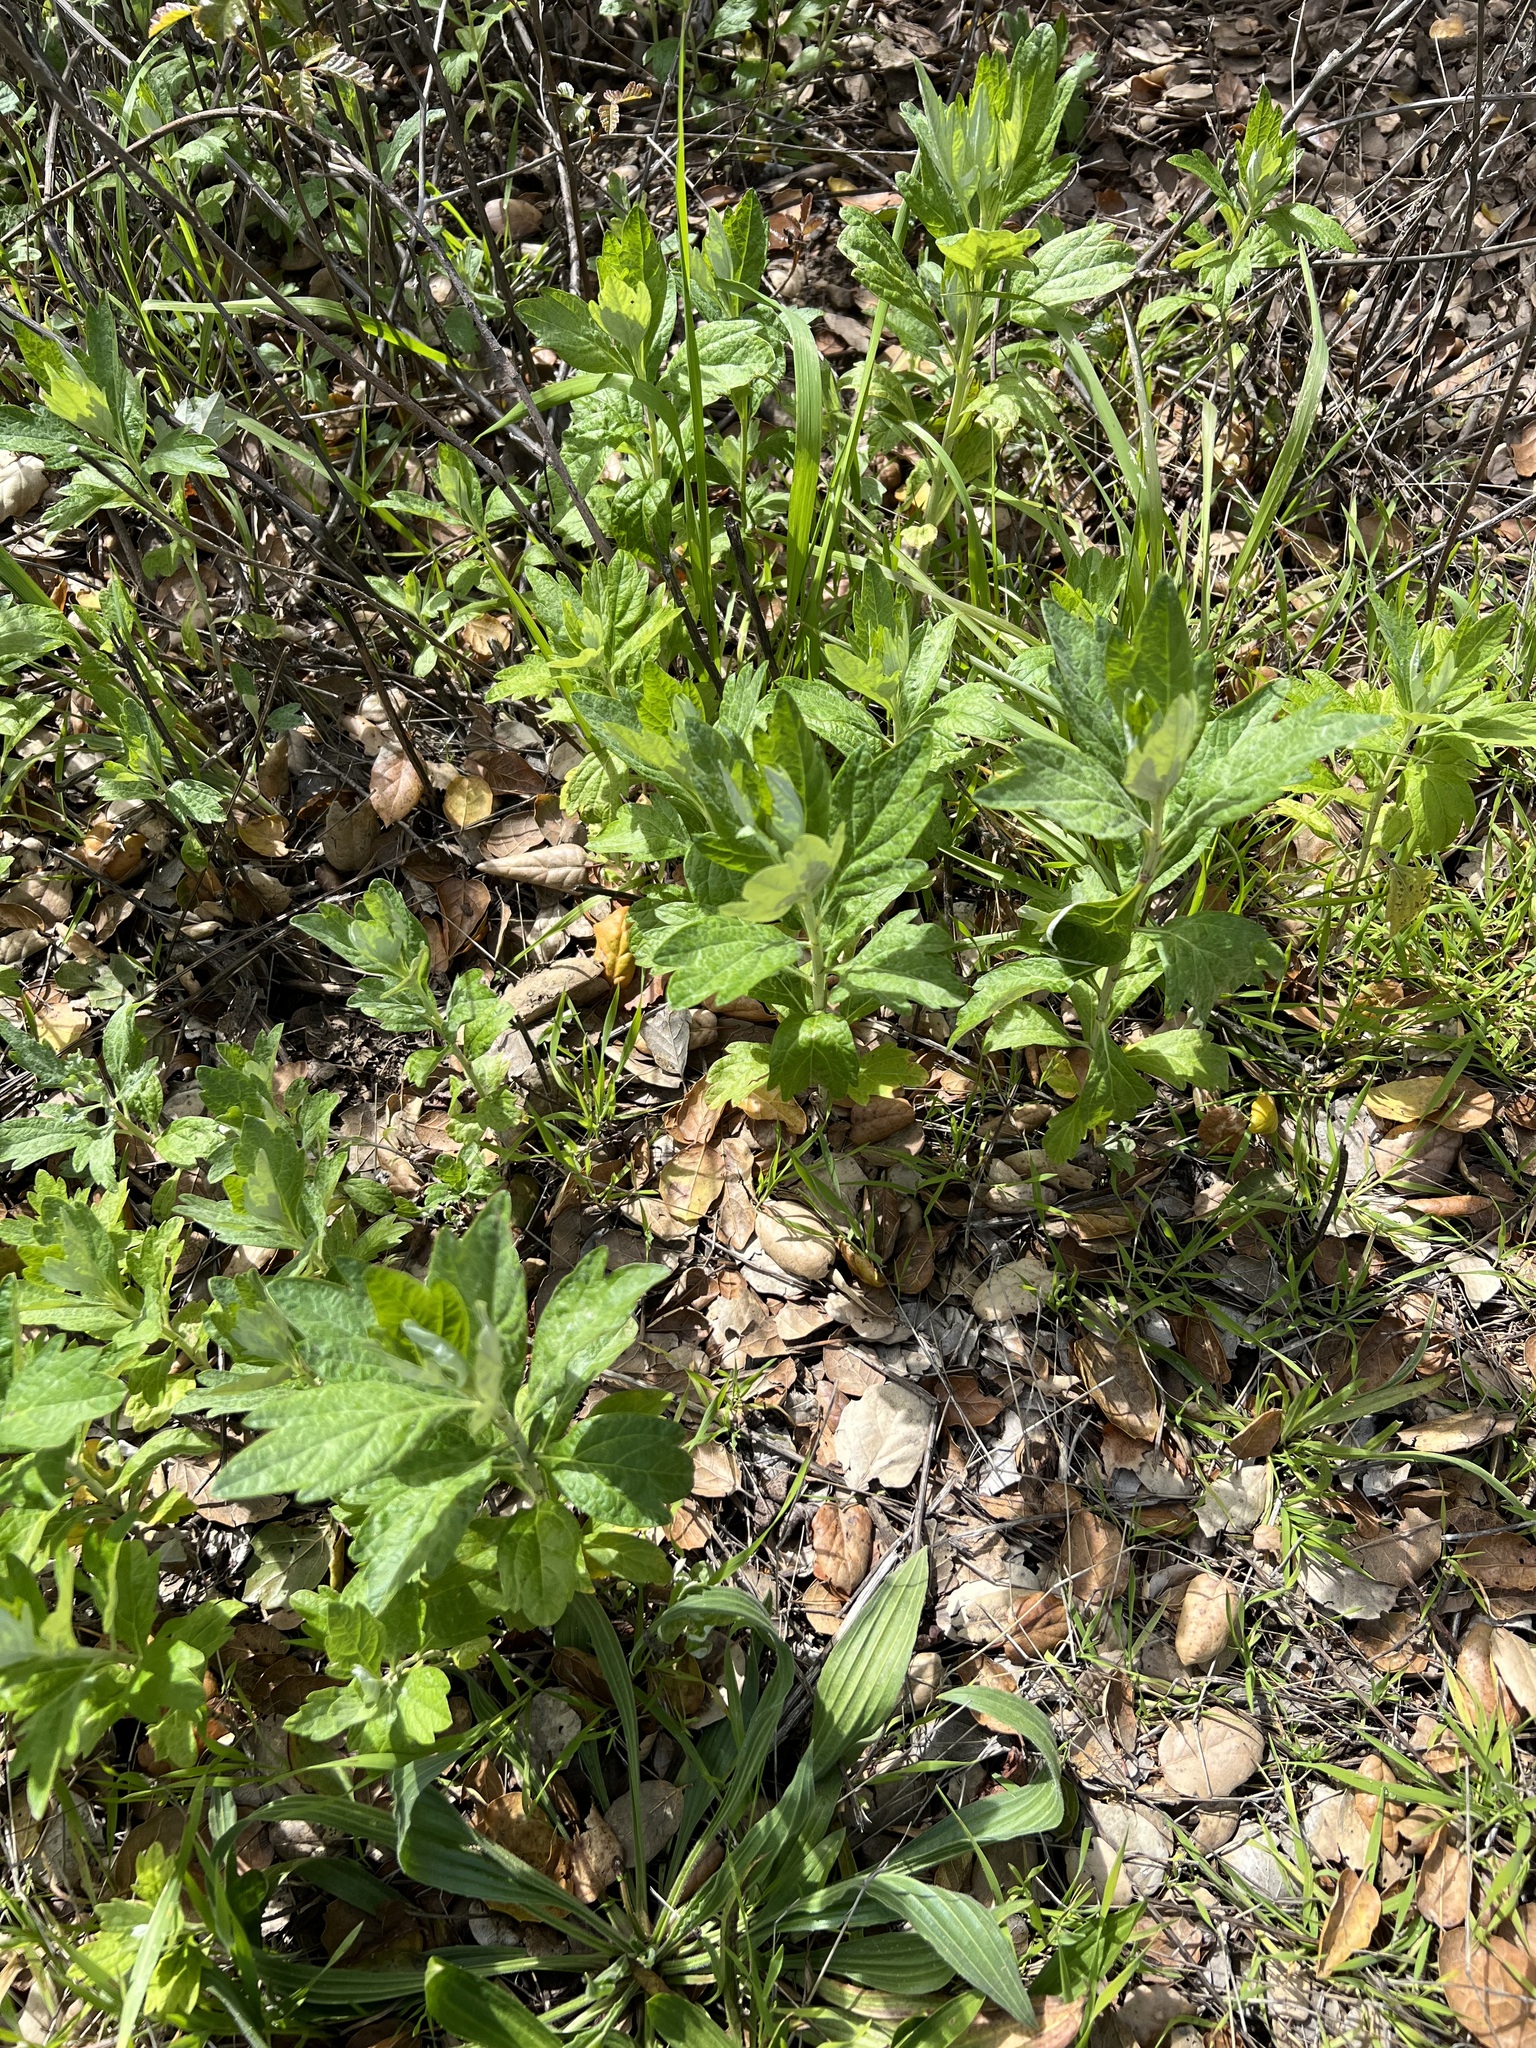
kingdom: Plantae
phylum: Tracheophyta
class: Magnoliopsida
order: Asterales
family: Asteraceae
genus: Artemisia
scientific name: Artemisia douglasiana
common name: Northwest mugwort
